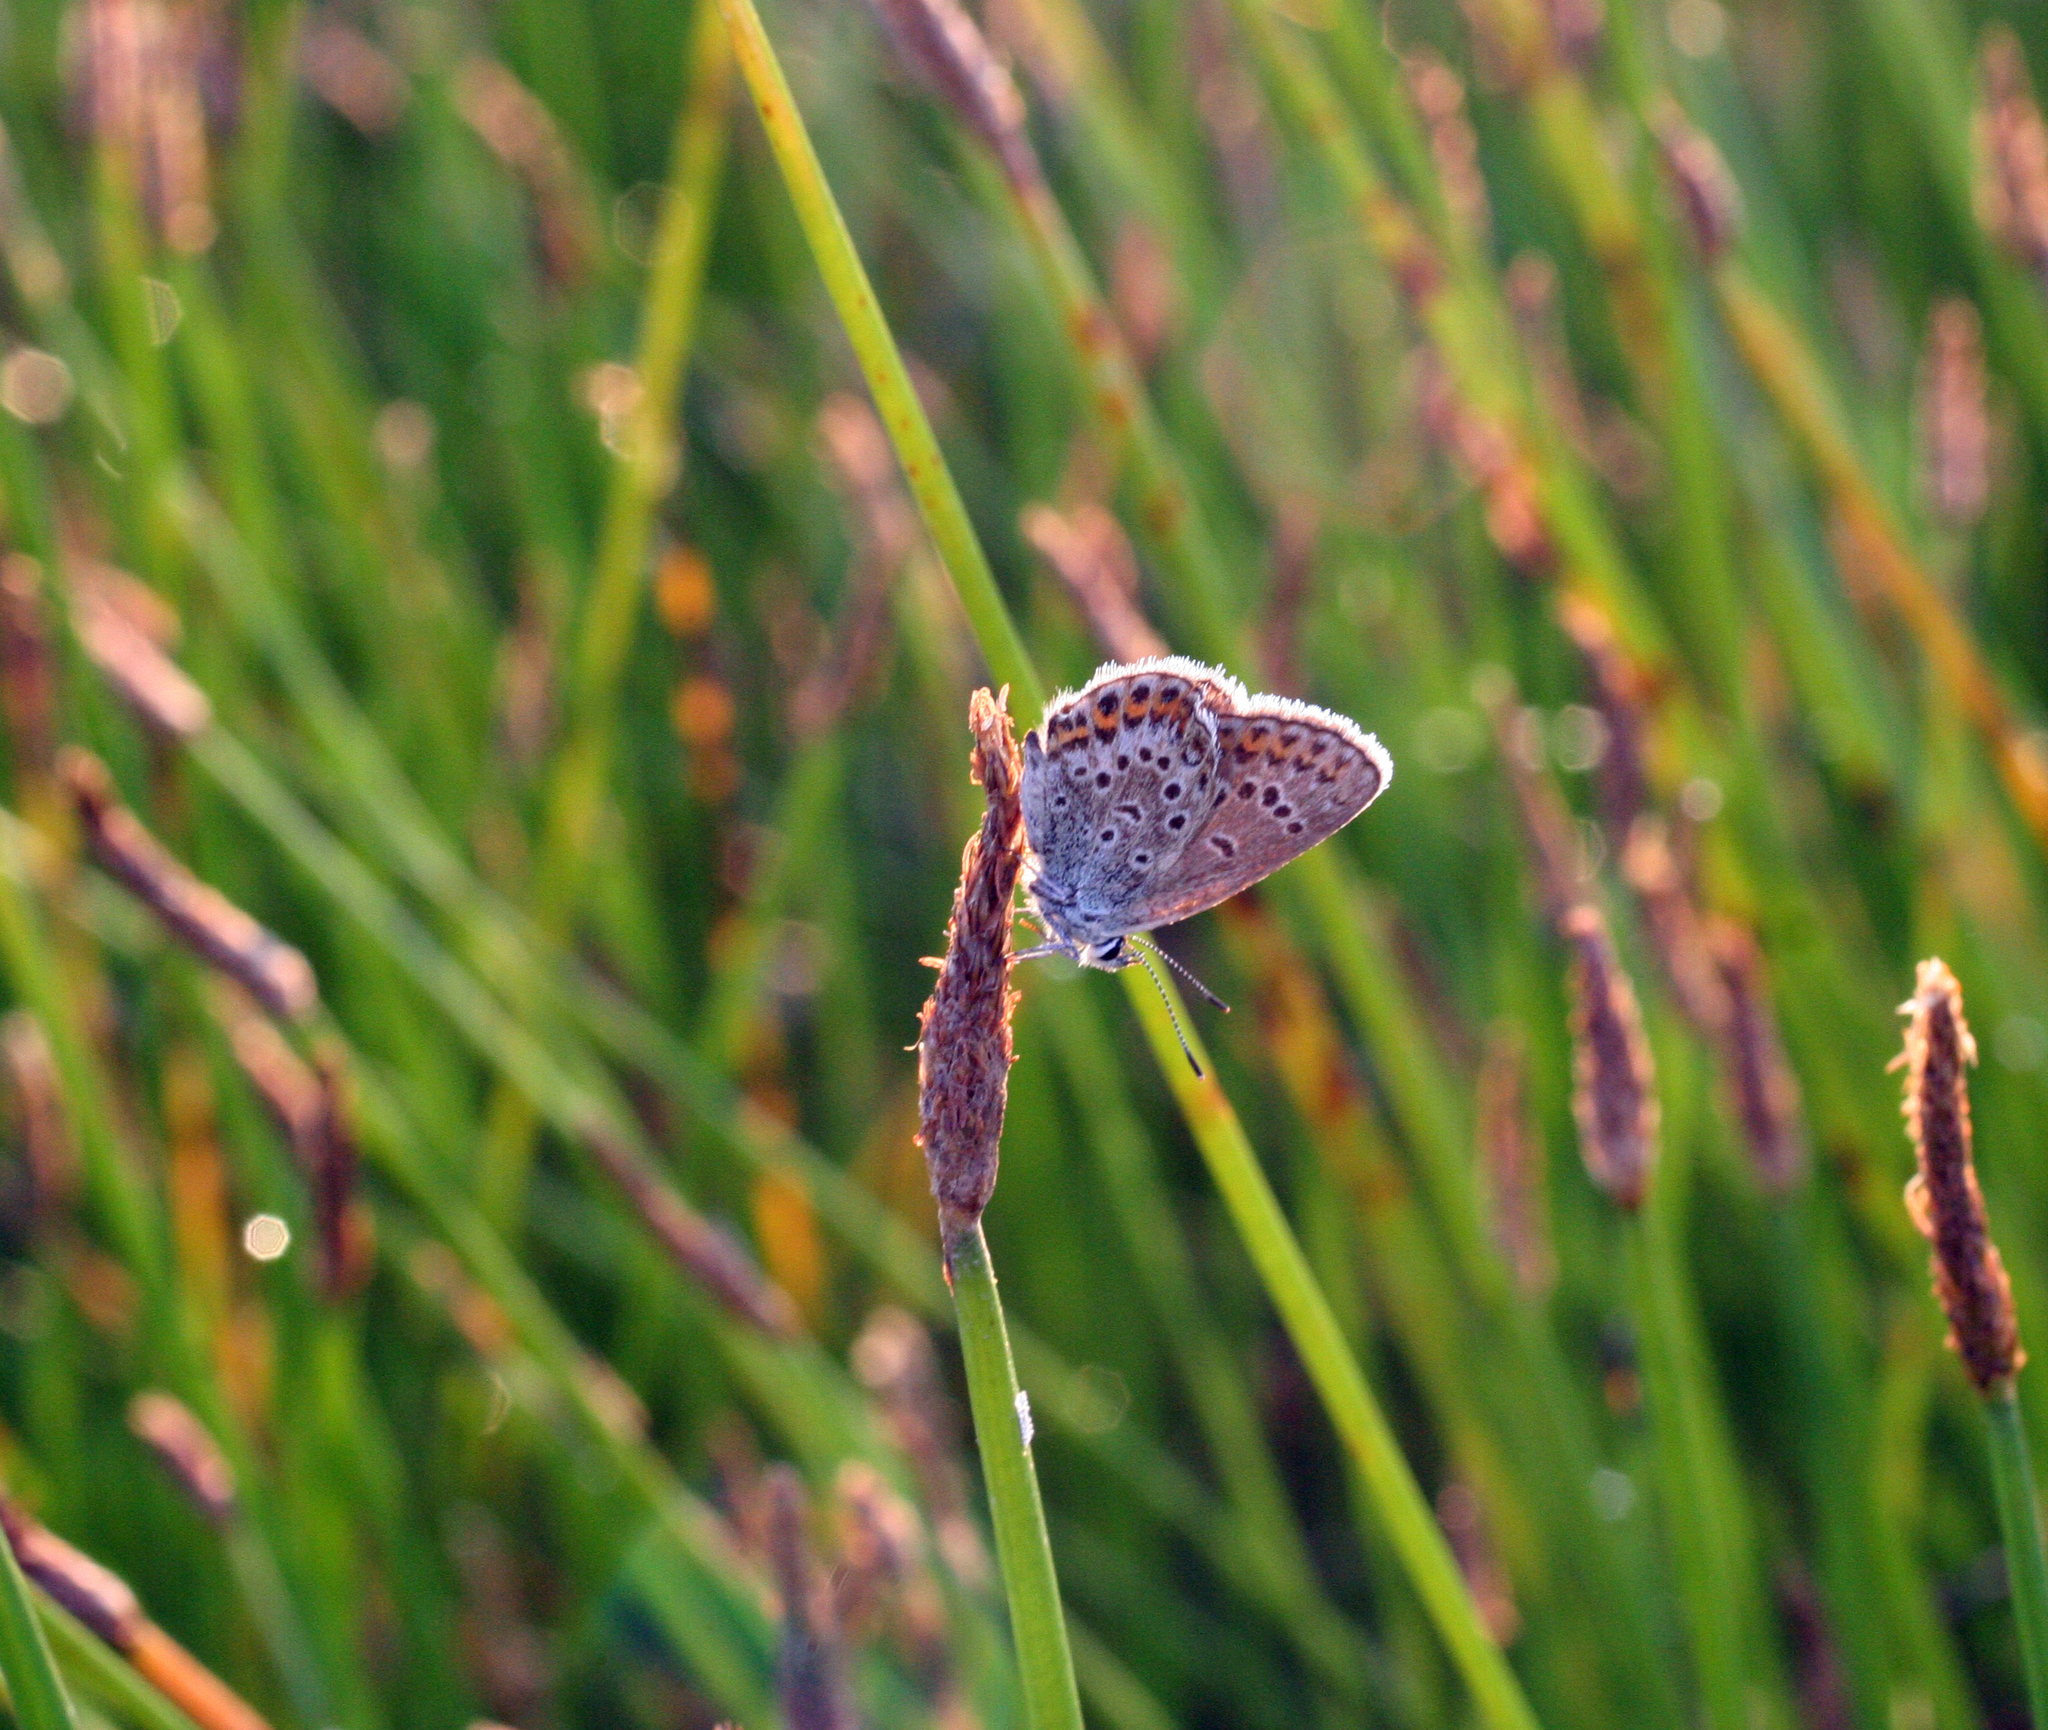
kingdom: Animalia
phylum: Arthropoda
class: Insecta
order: Lepidoptera
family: Lycaenidae
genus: Plebejus
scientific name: Plebejus argus
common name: Silver-studded blue
